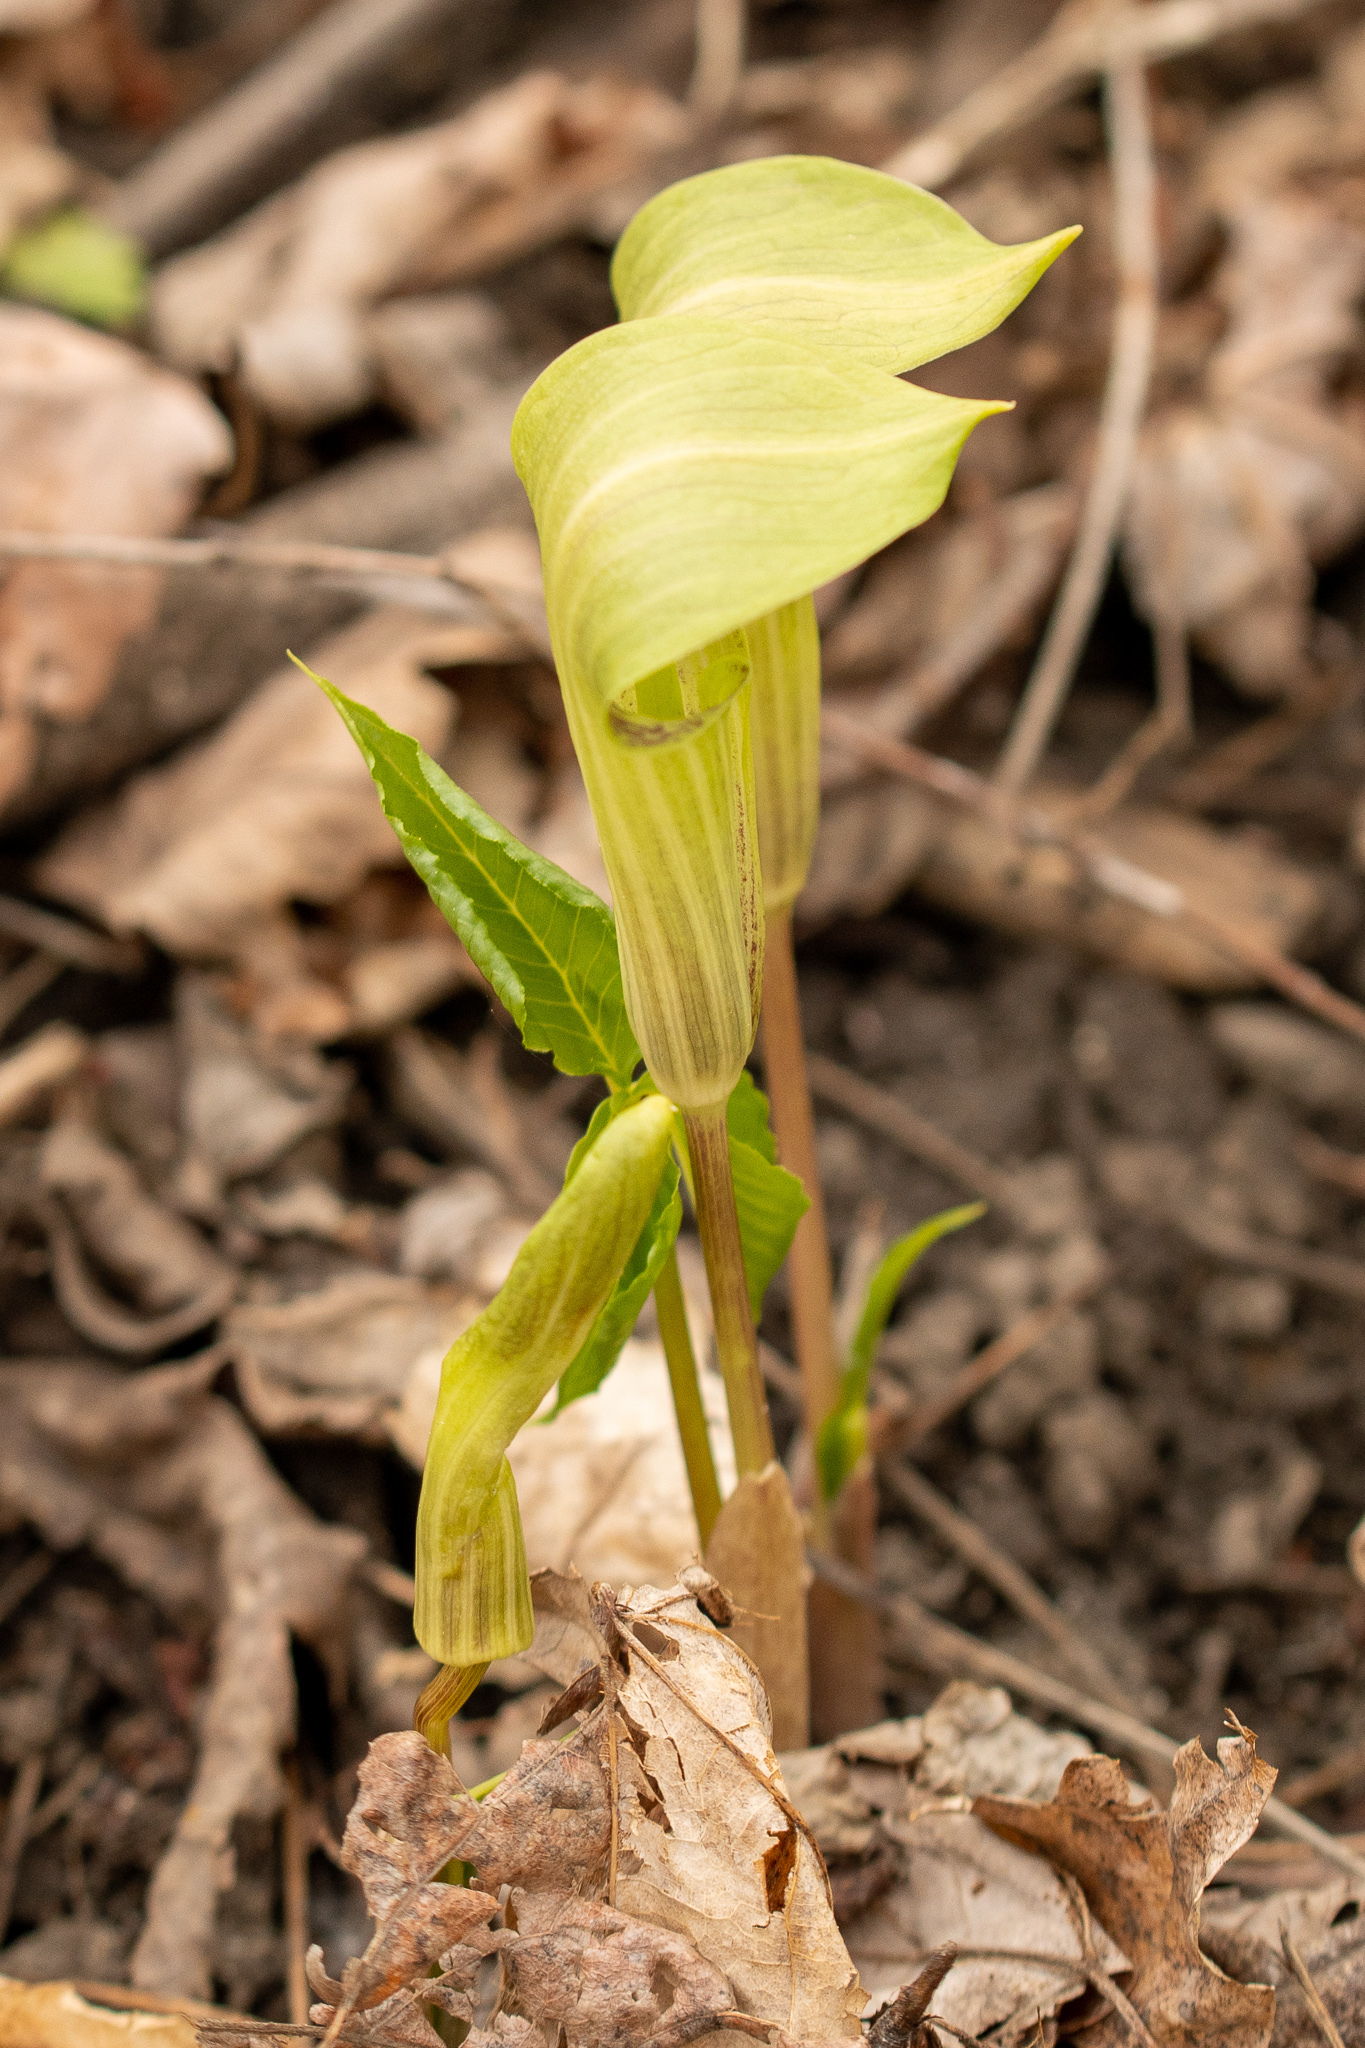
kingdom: Plantae
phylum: Tracheophyta
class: Liliopsida
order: Alismatales
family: Araceae
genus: Arisaema
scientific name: Arisaema triphyllum
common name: Jack-in-the-pulpit
